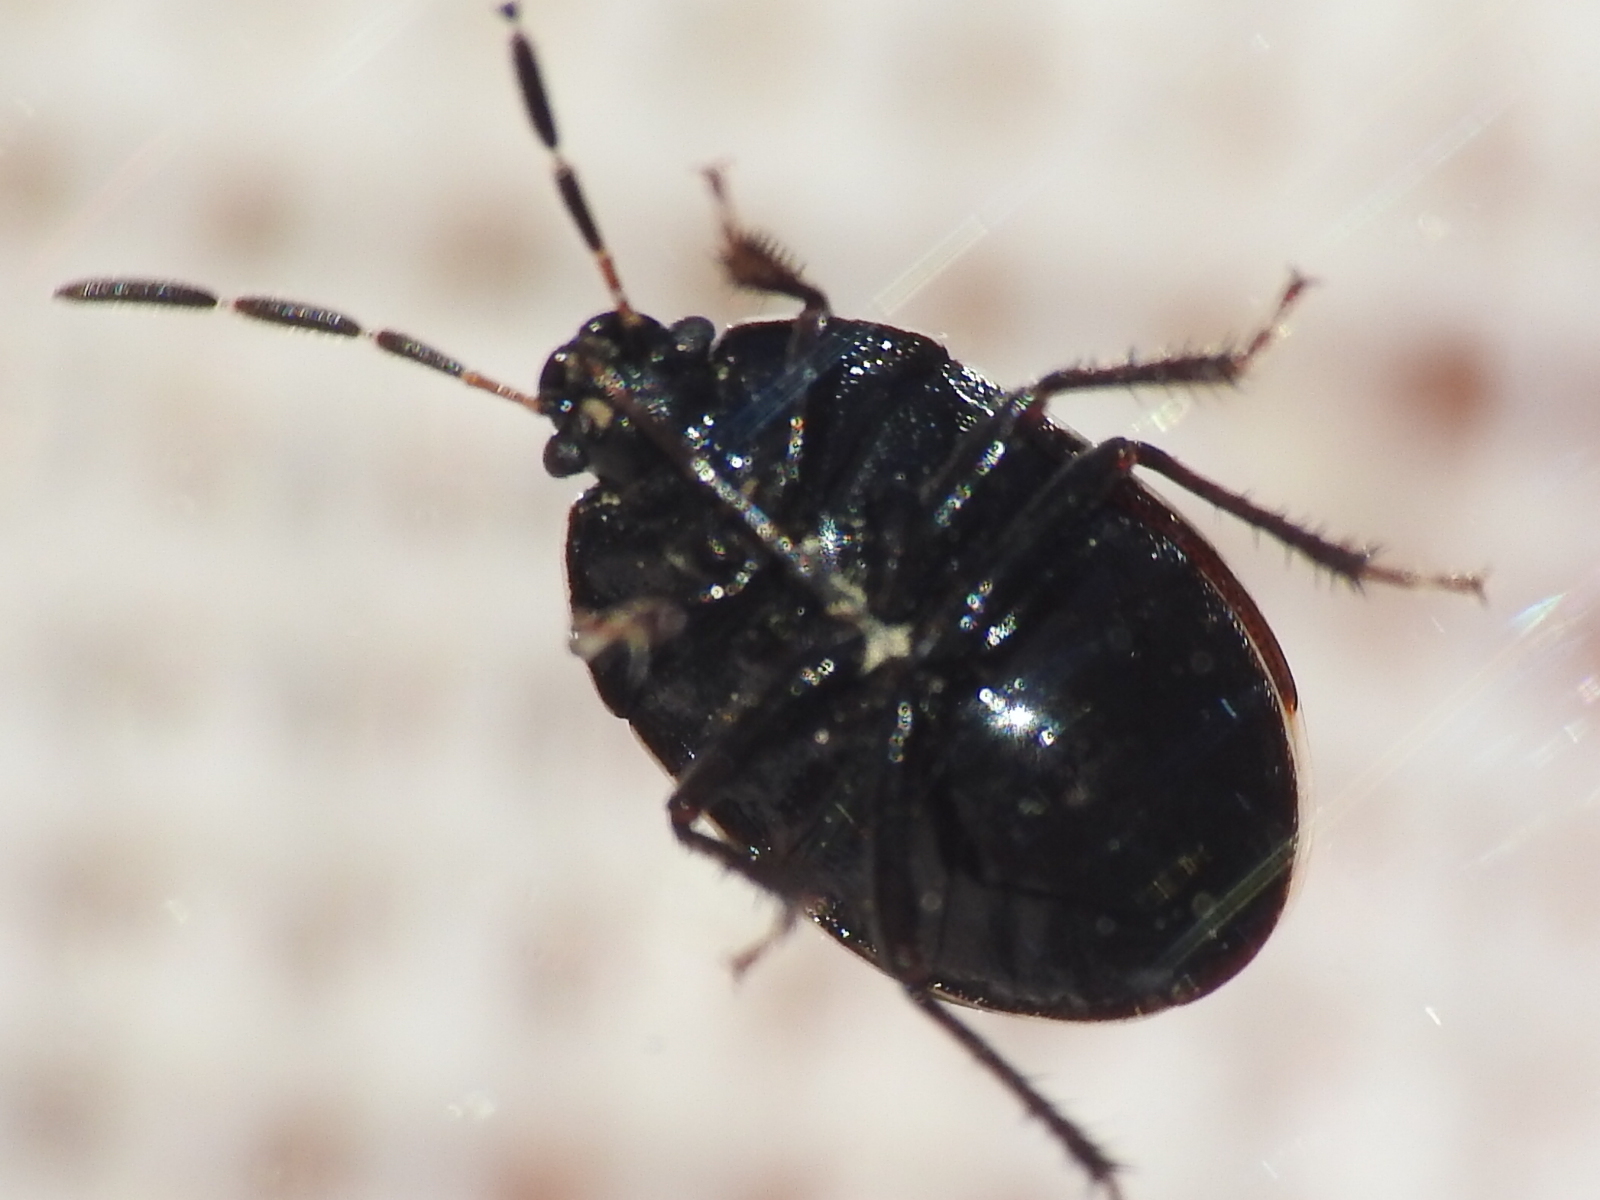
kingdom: Animalia
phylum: Arthropoda
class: Insecta
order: Hemiptera
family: Cydnidae
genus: Sehirus
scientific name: Sehirus cinctus
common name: White-margined burrower bug
